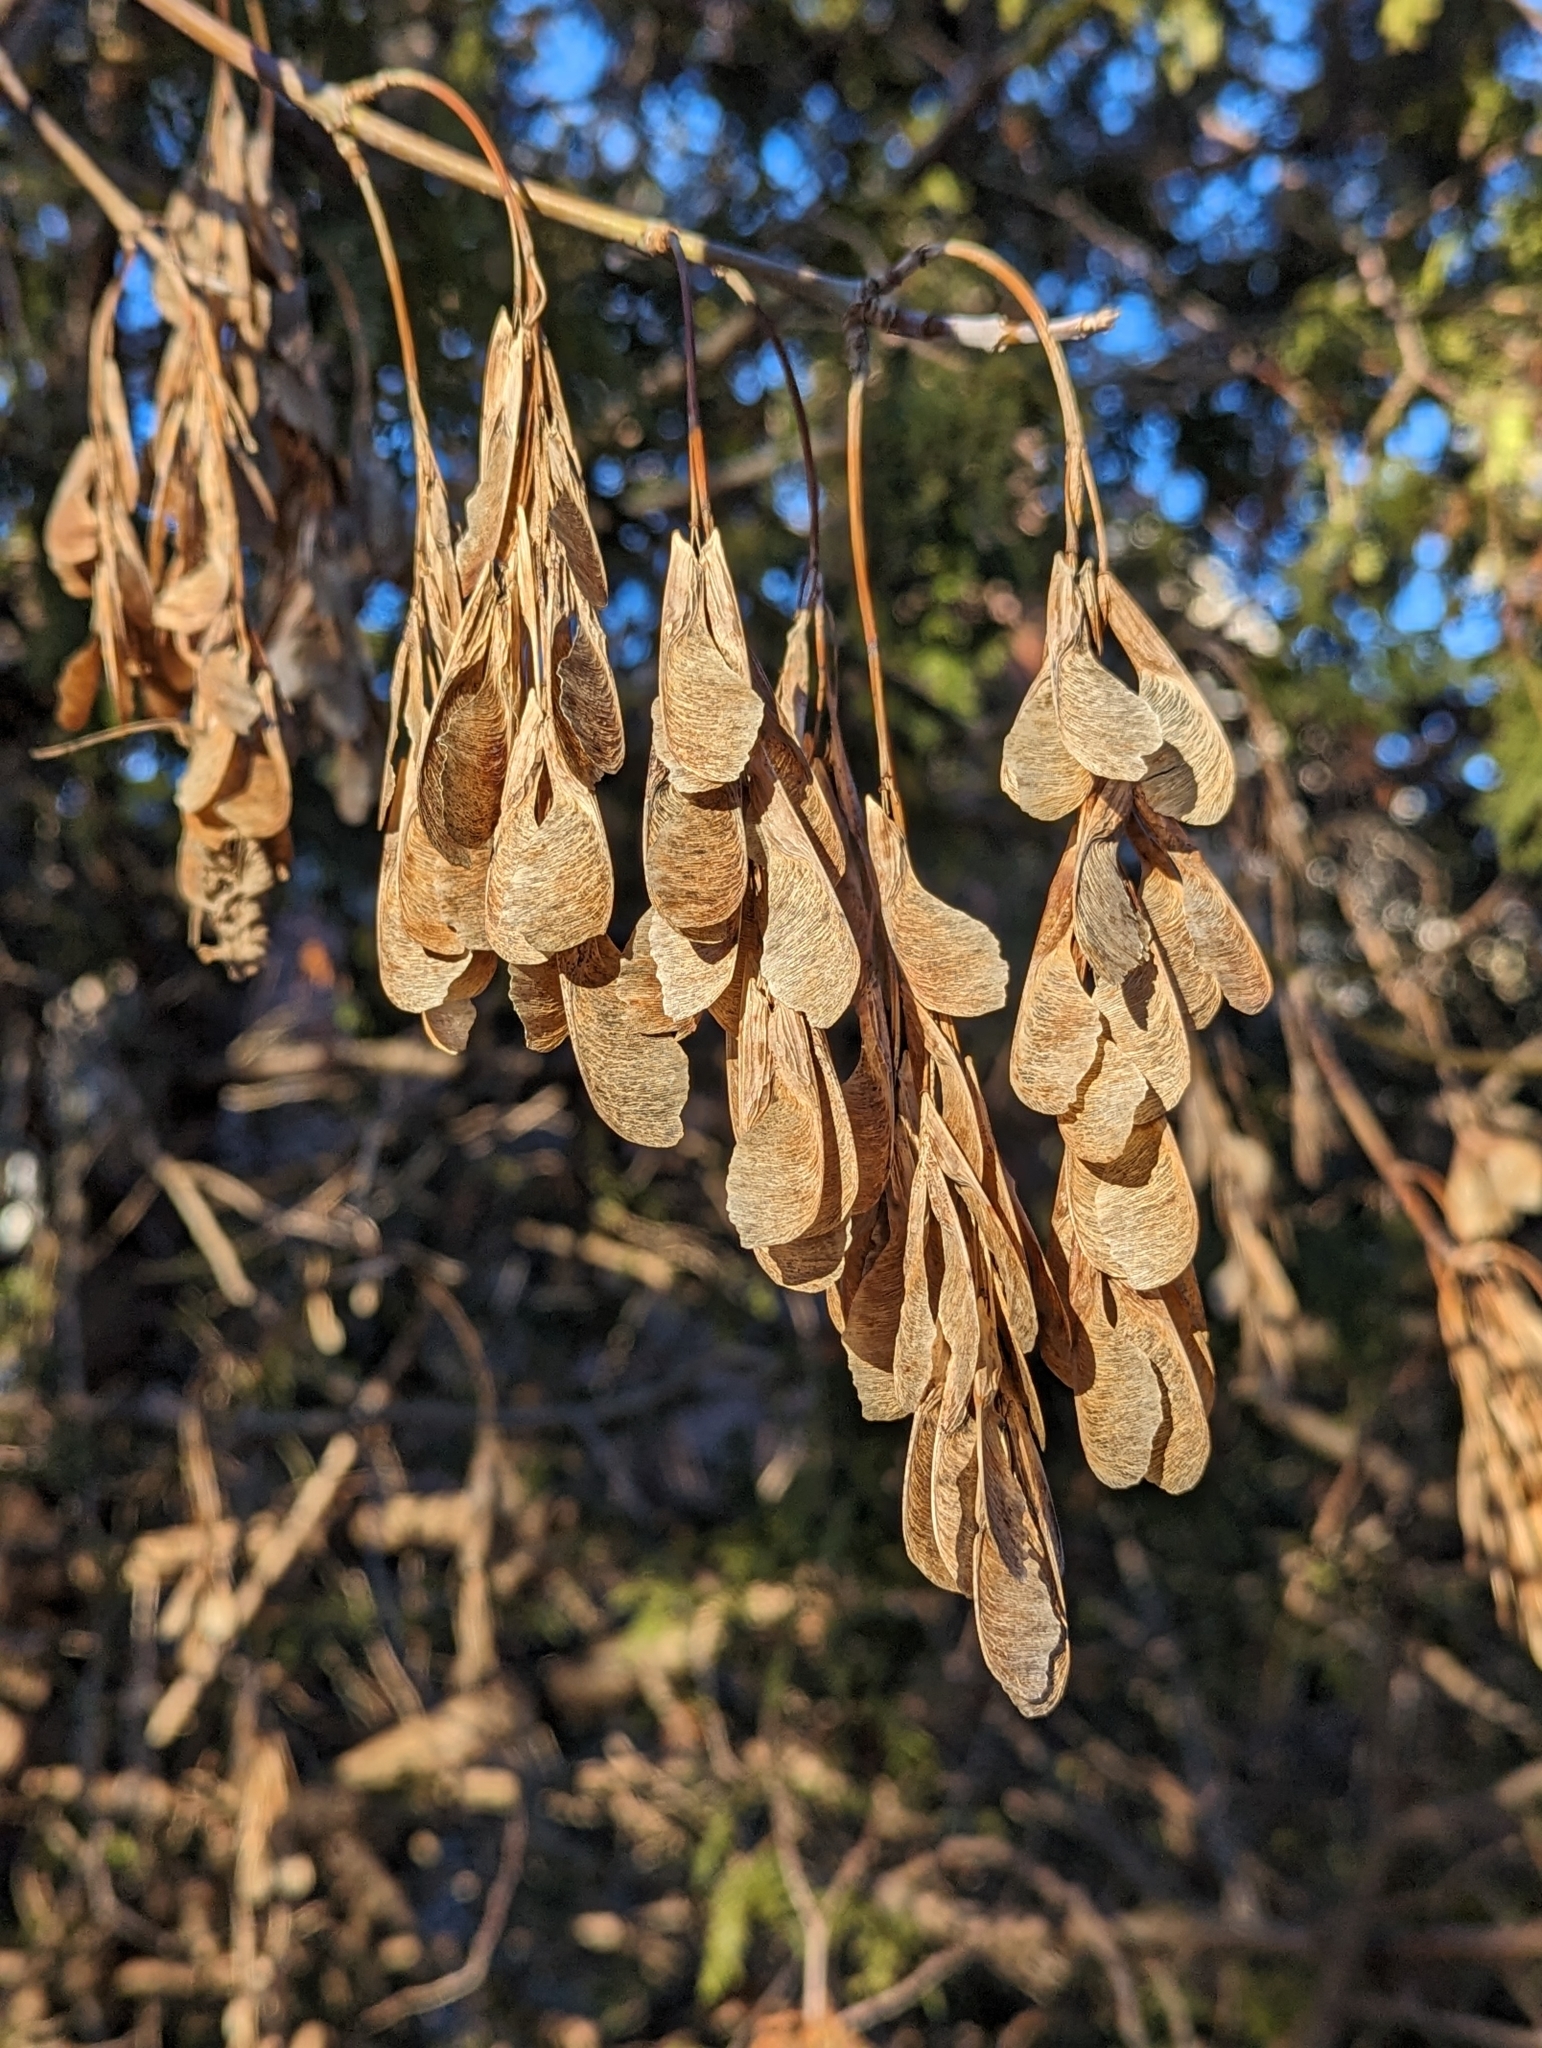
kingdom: Plantae
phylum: Tracheophyta
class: Magnoliopsida
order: Sapindales
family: Sapindaceae
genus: Acer
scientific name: Acer negundo
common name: Ashleaf maple
